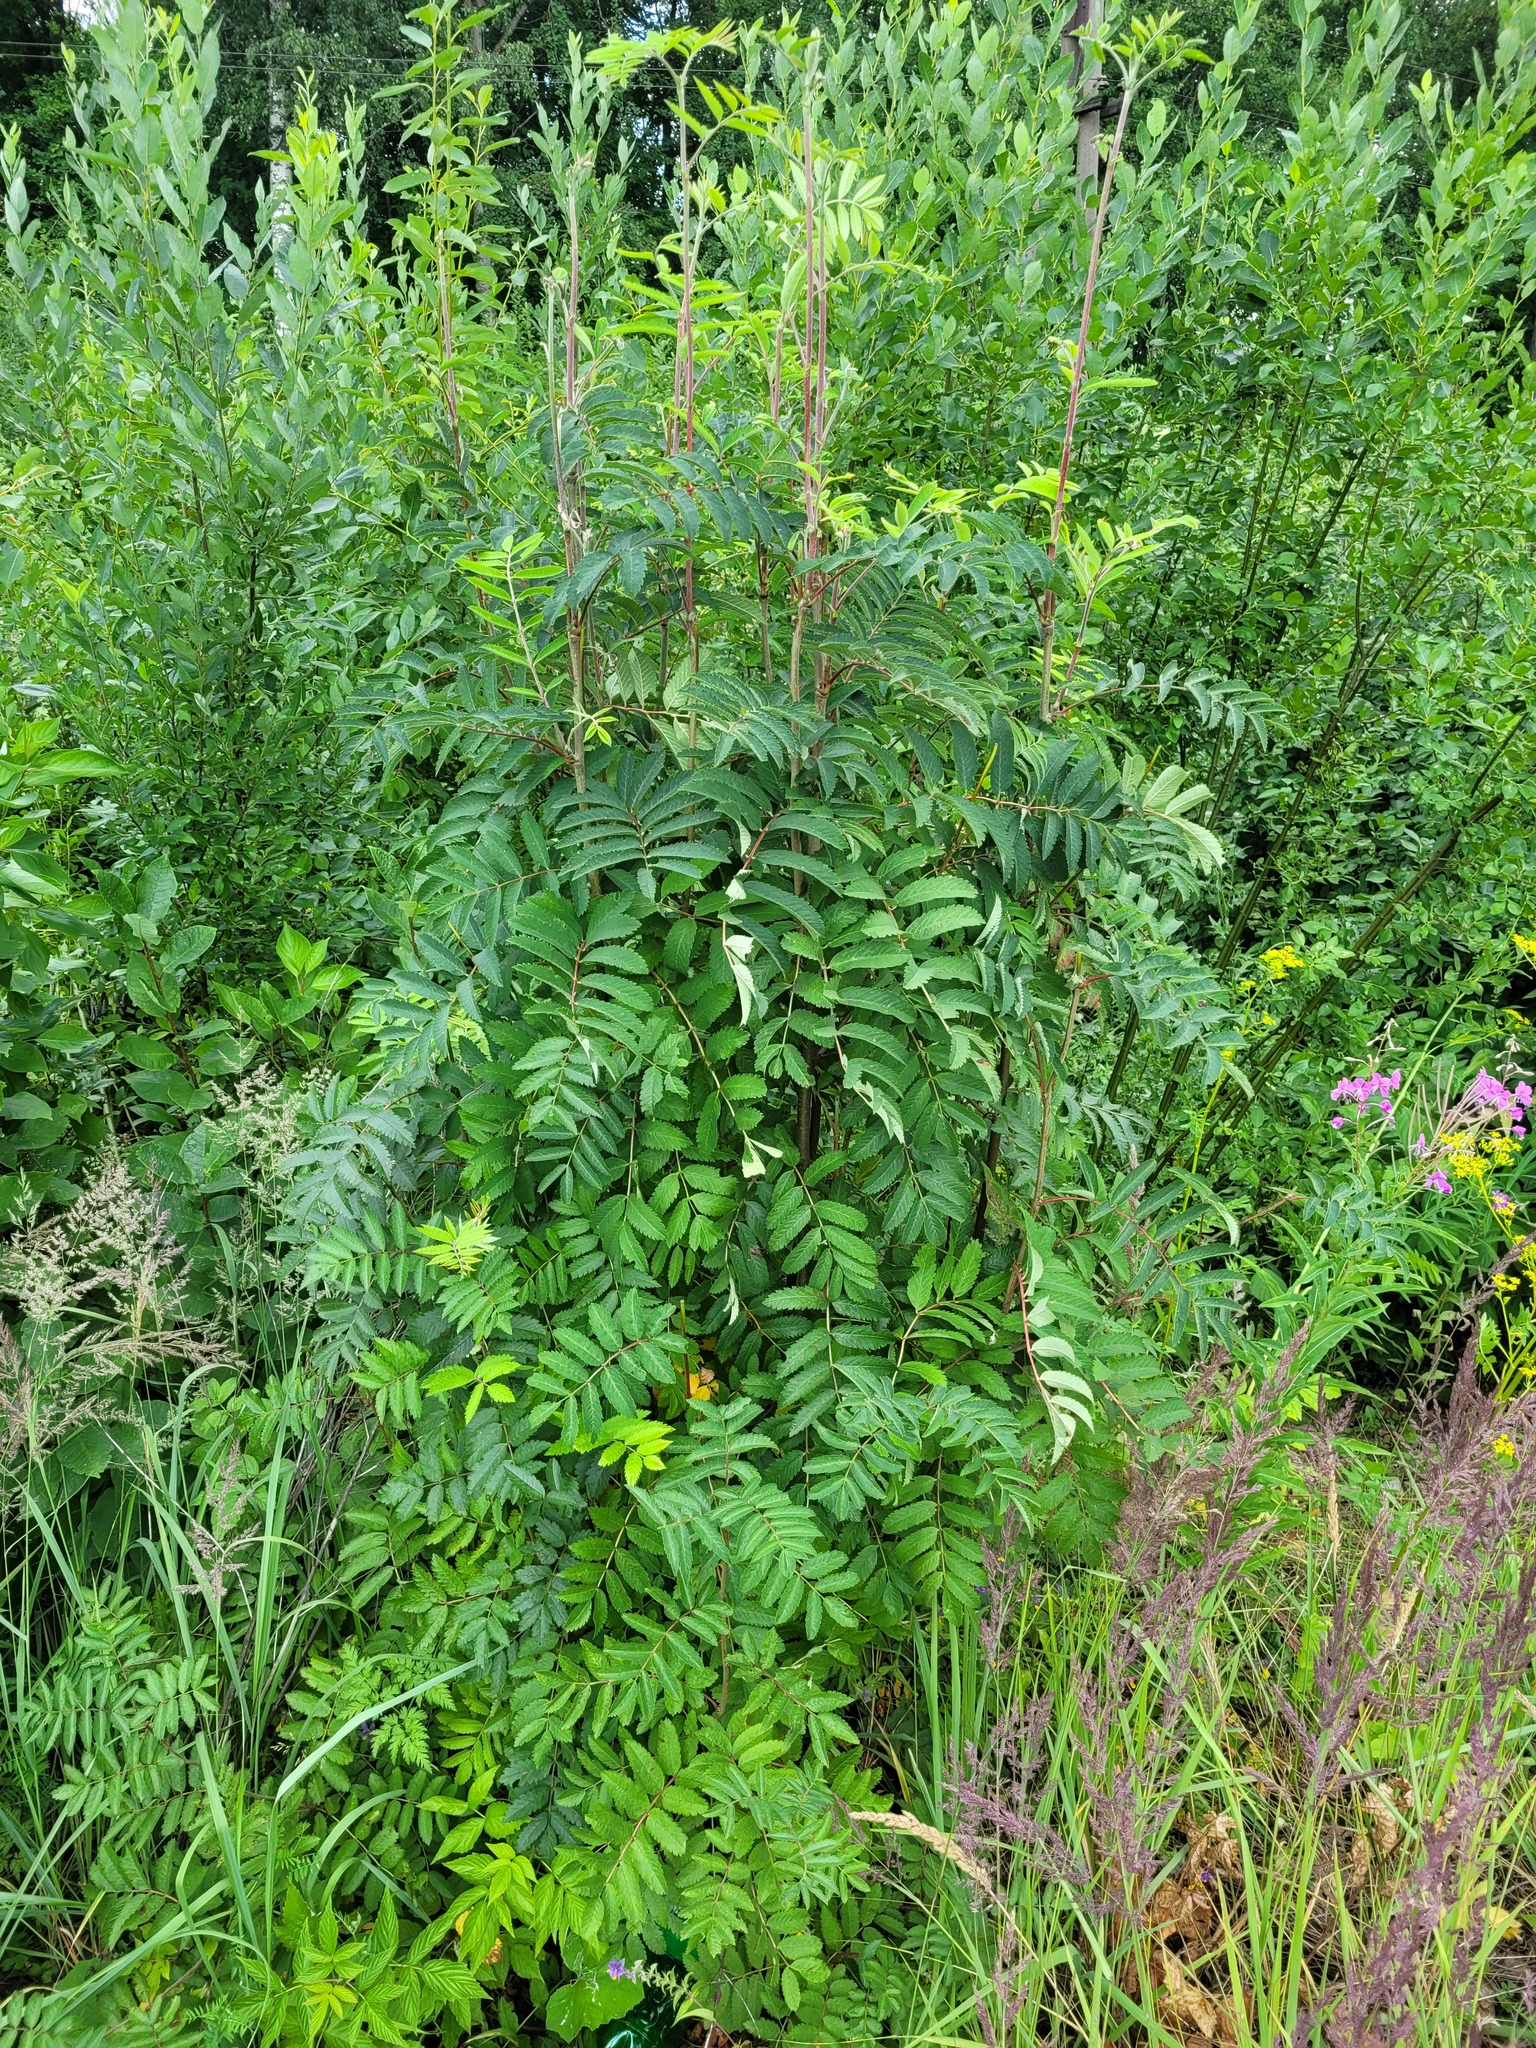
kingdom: Plantae
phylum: Tracheophyta
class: Magnoliopsida
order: Rosales
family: Rosaceae
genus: Sorbus
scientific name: Sorbus aucuparia
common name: Rowan
